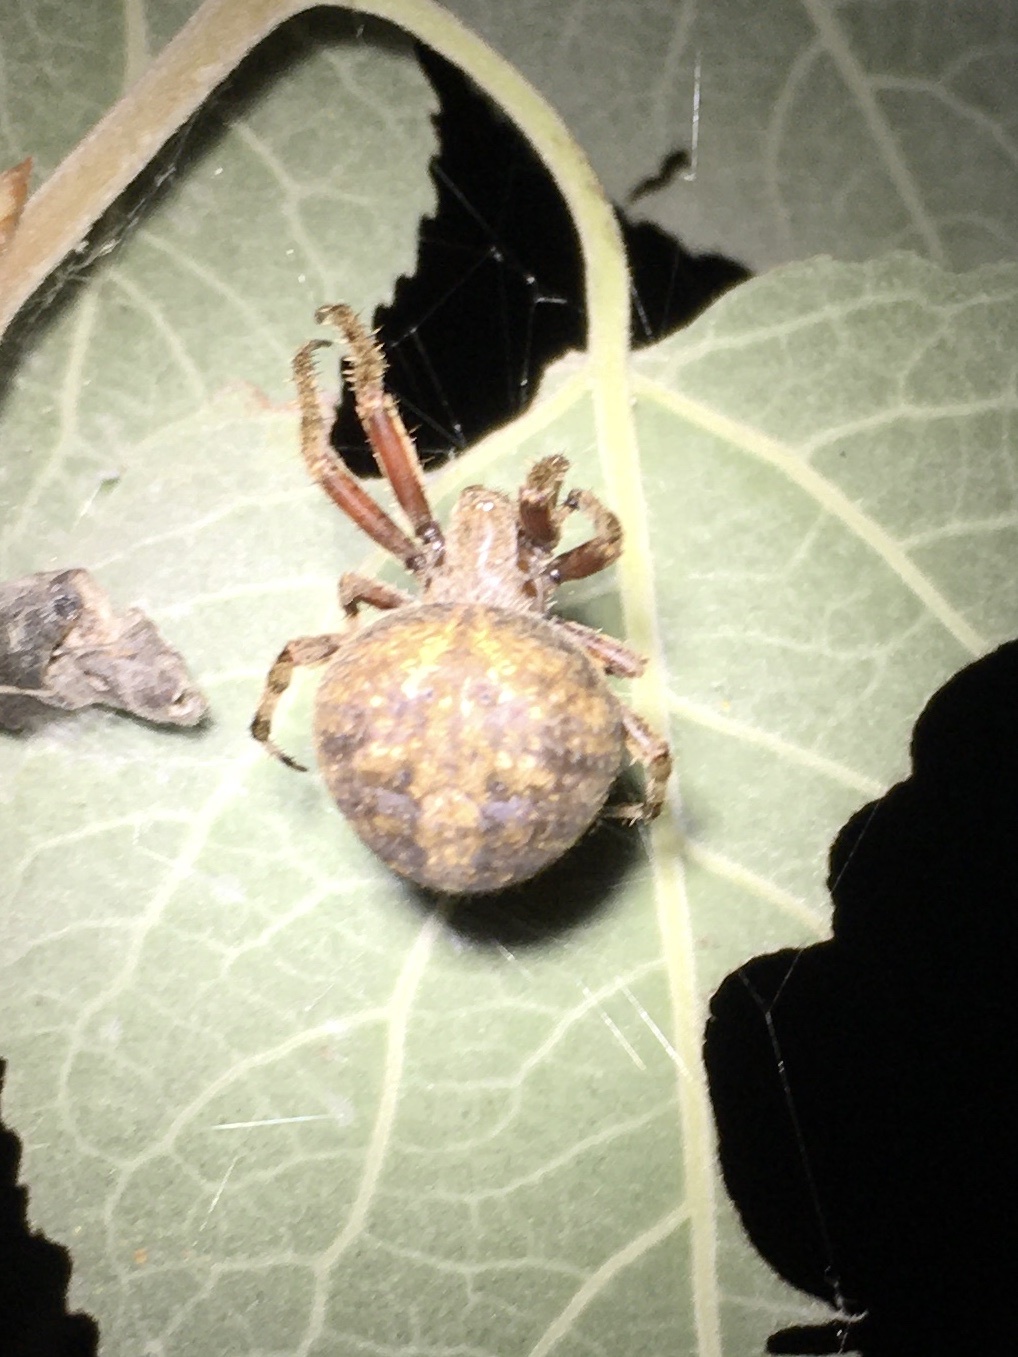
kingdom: Animalia
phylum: Arthropoda
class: Arachnida
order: Araneae
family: Araneidae
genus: Neoscona
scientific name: Neoscona crucifera
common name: Spotted orbweaver
